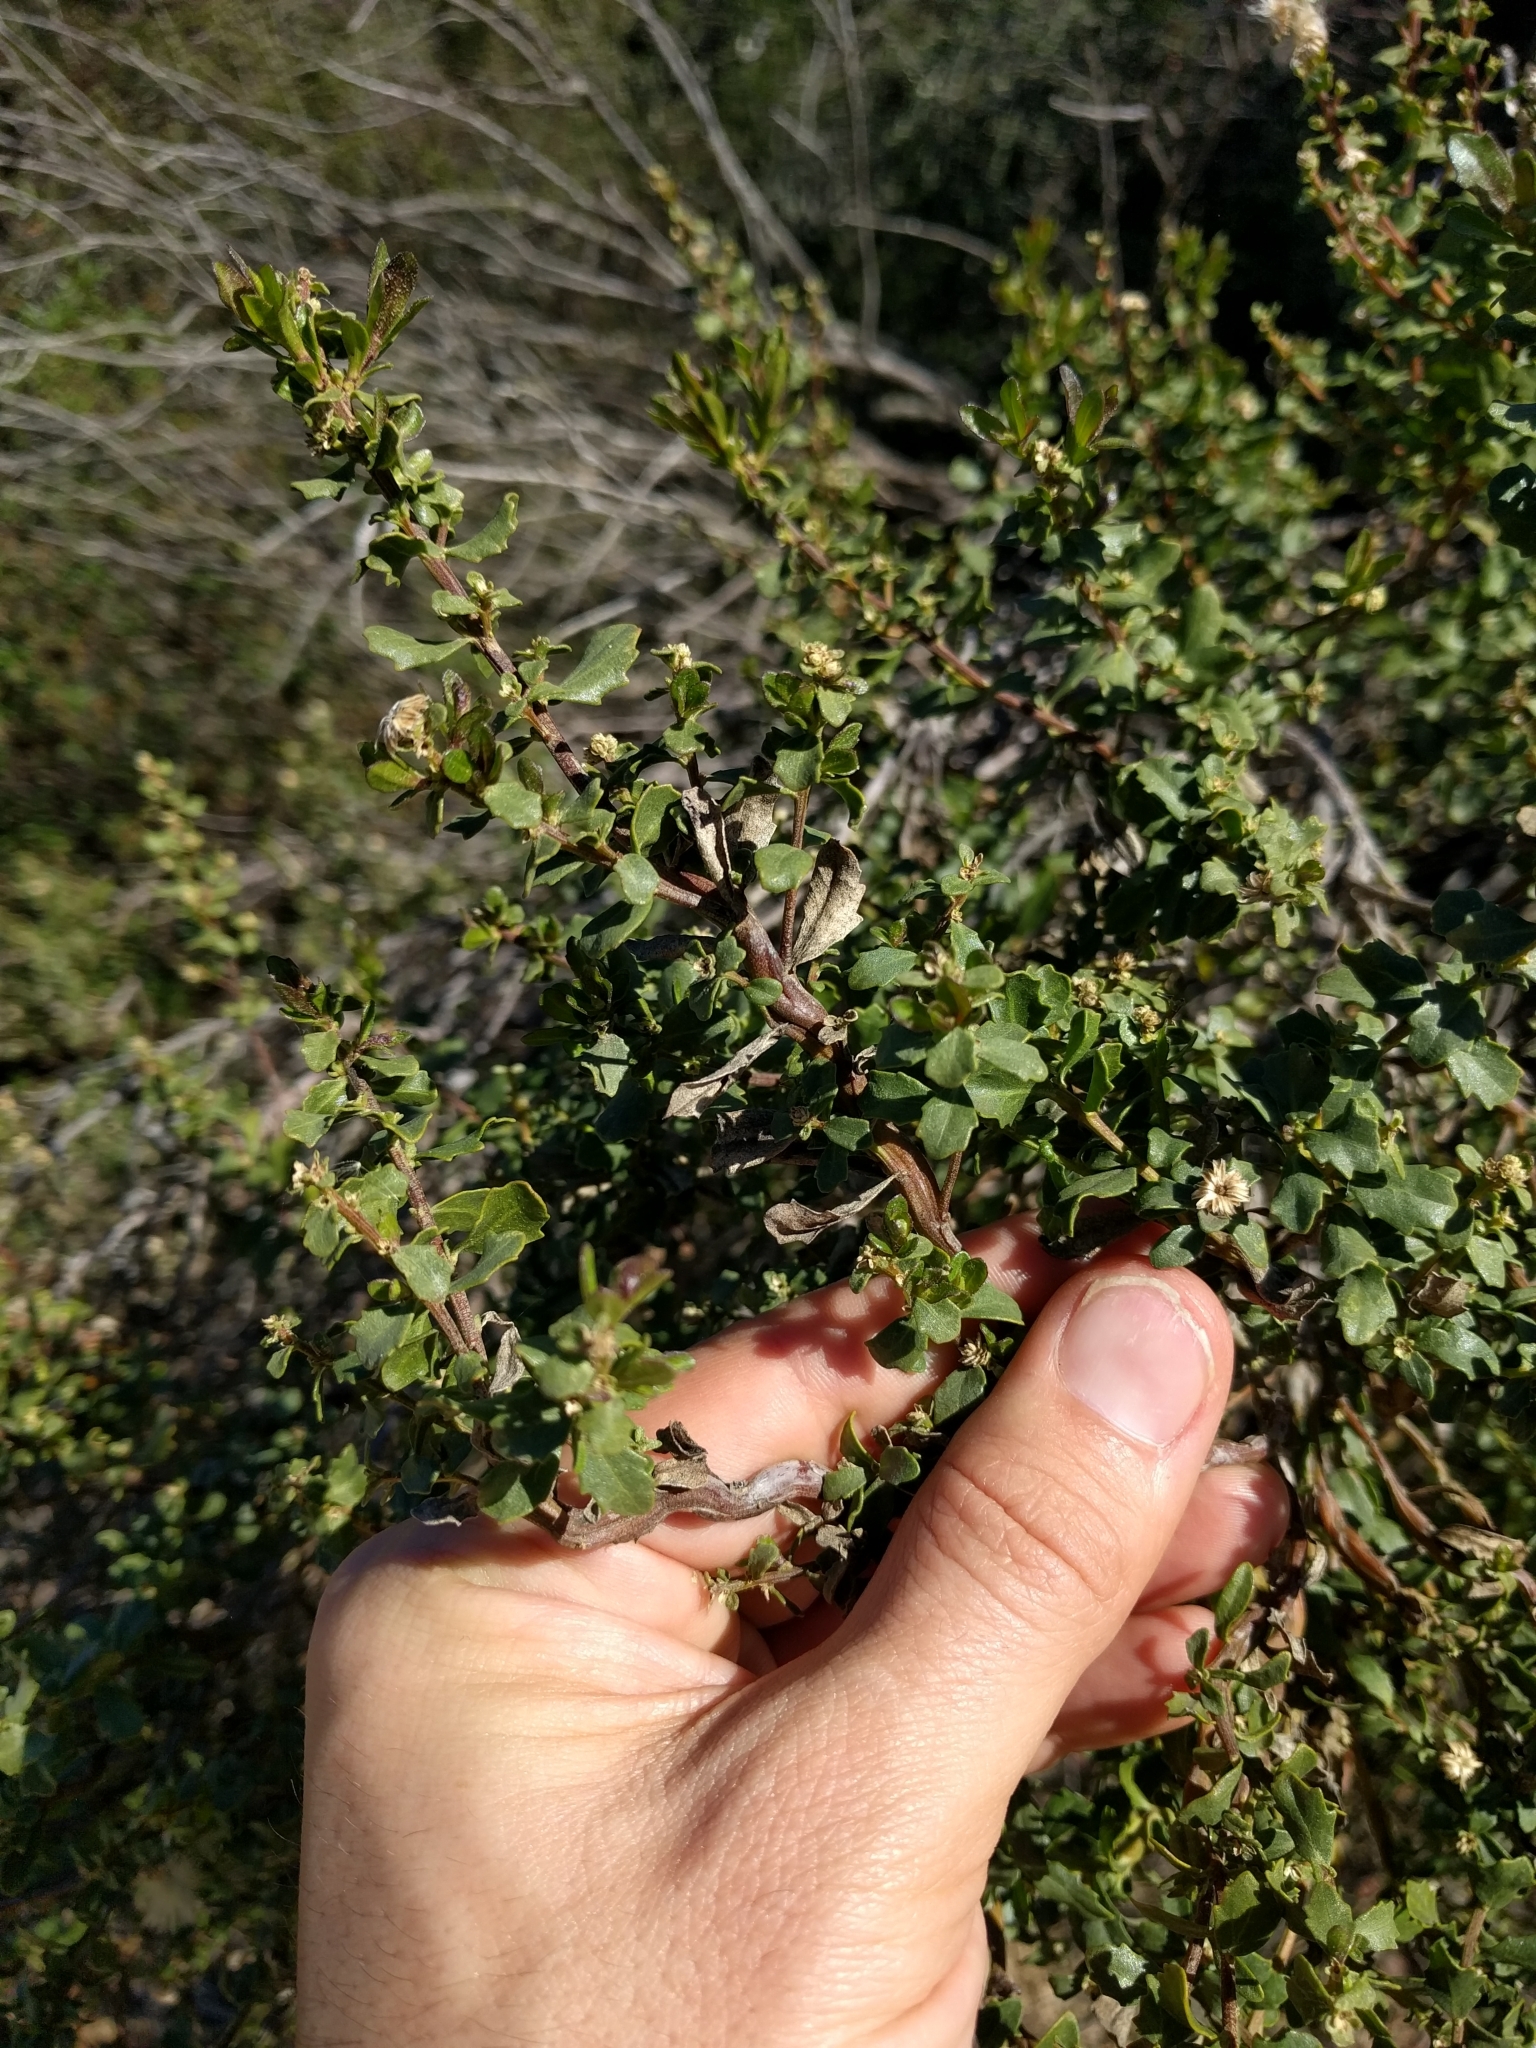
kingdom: Plantae
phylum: Tracheophyta
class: Magnoliopsida
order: Asterales
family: Asteraceae
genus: Baccharis
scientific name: Baccharis pilularis
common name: Coyotebrush
